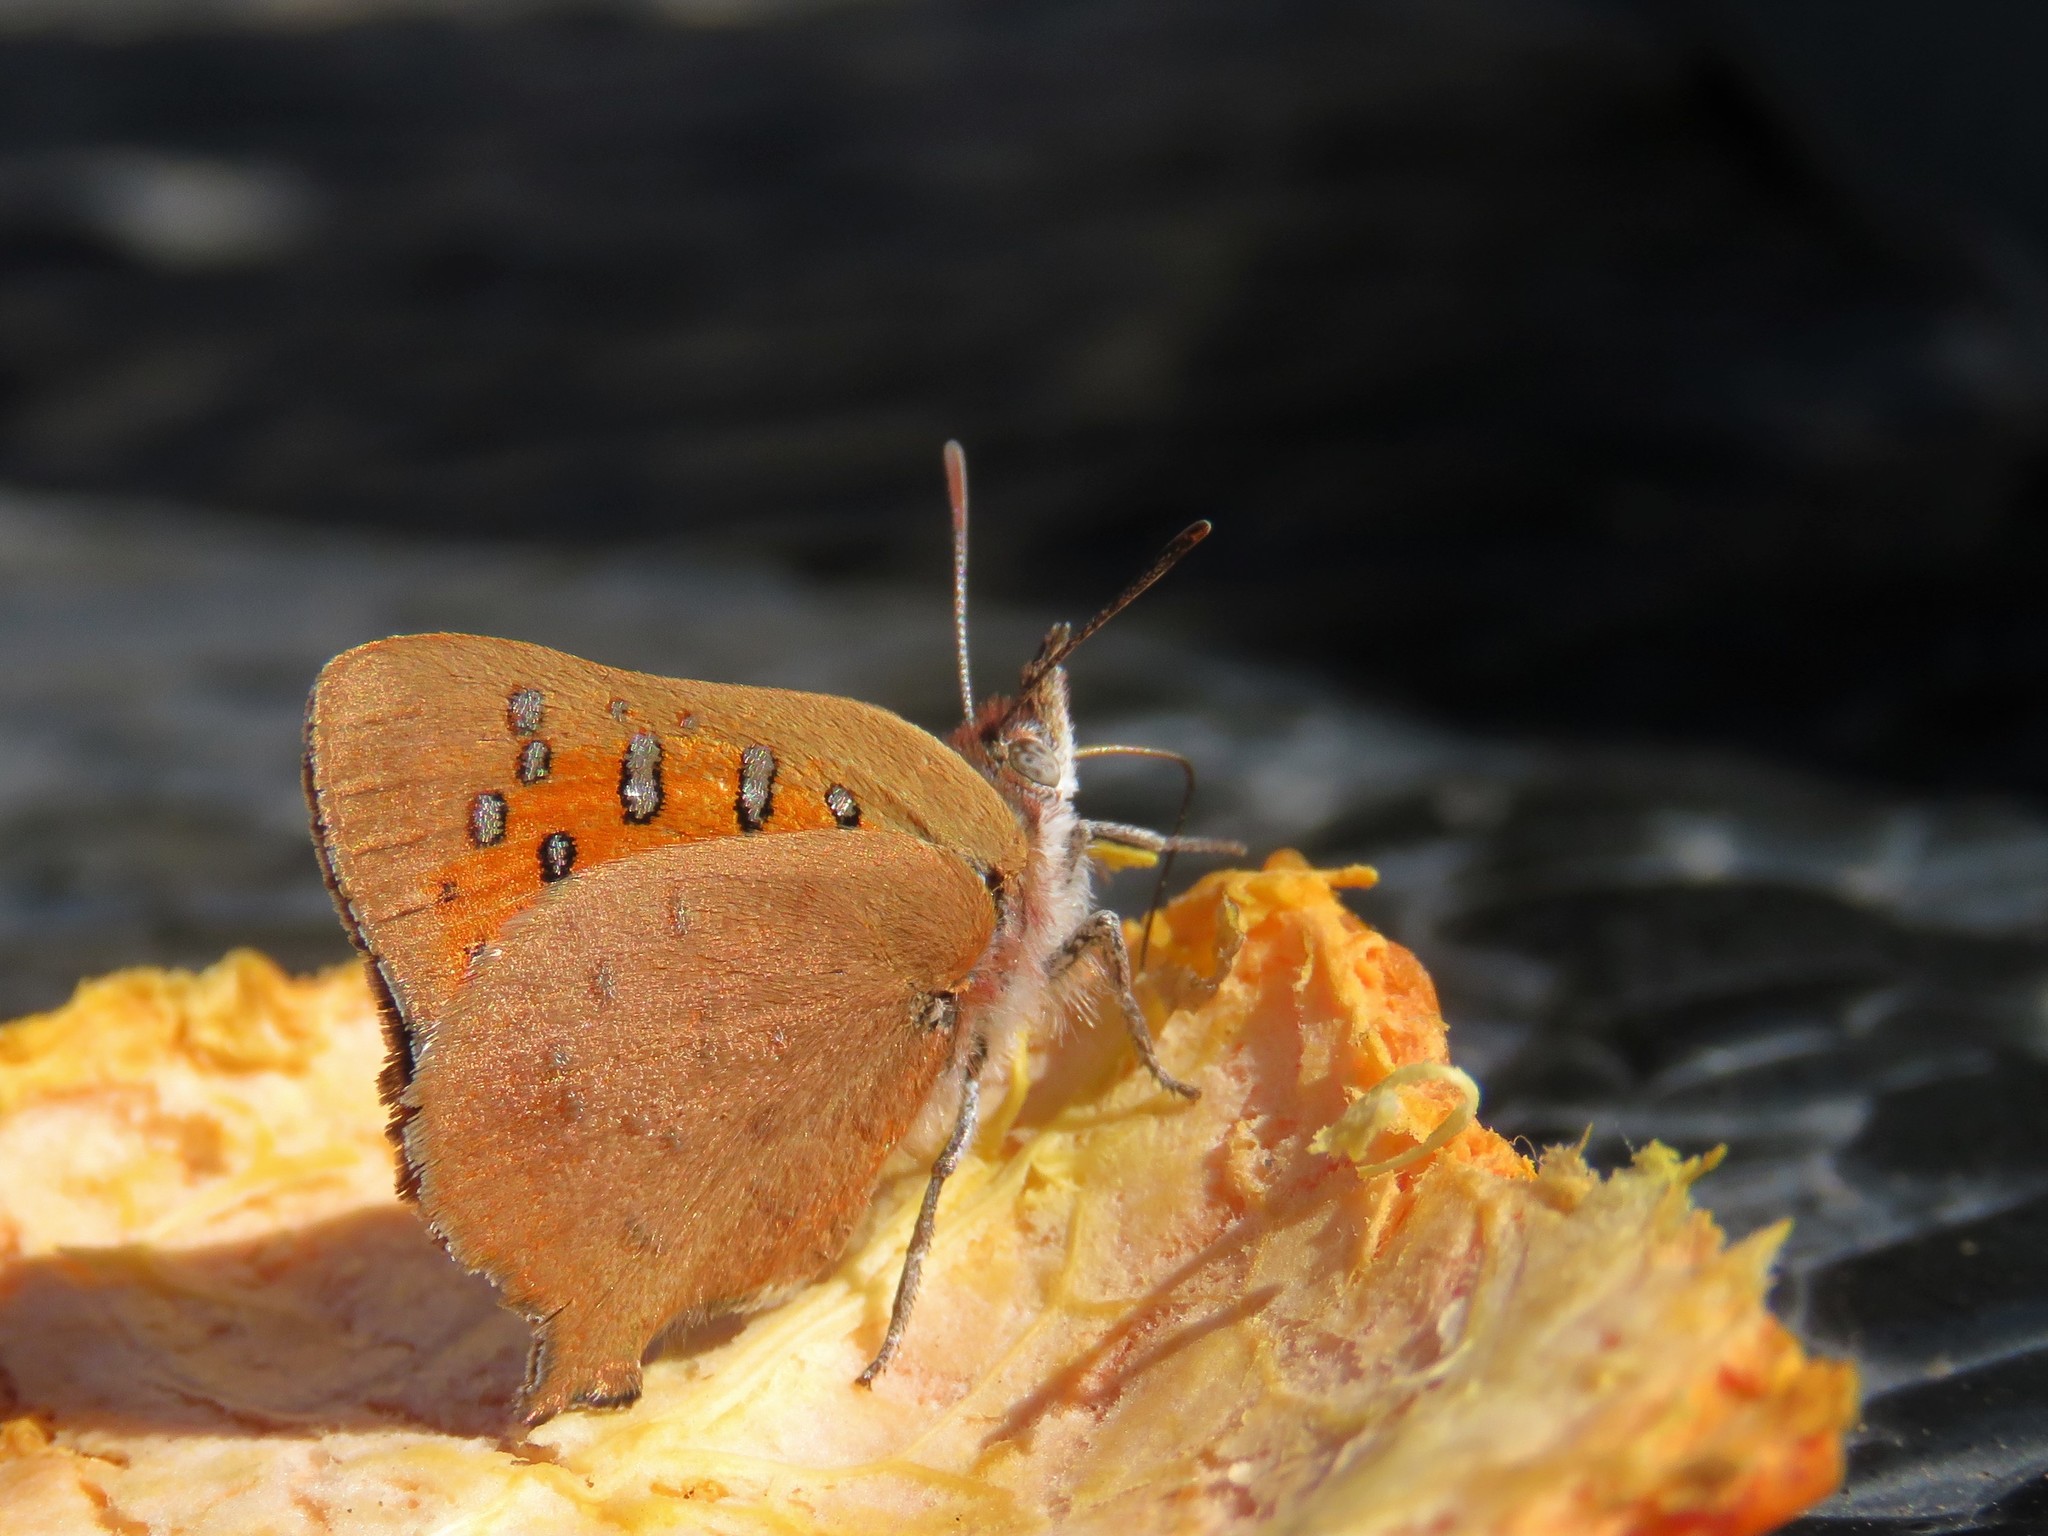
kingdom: Animalia
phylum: Arthropoda
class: Insecta
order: Lepidoptera
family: Lycaenidae
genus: Zeritis
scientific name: Zeritis chrysaor
